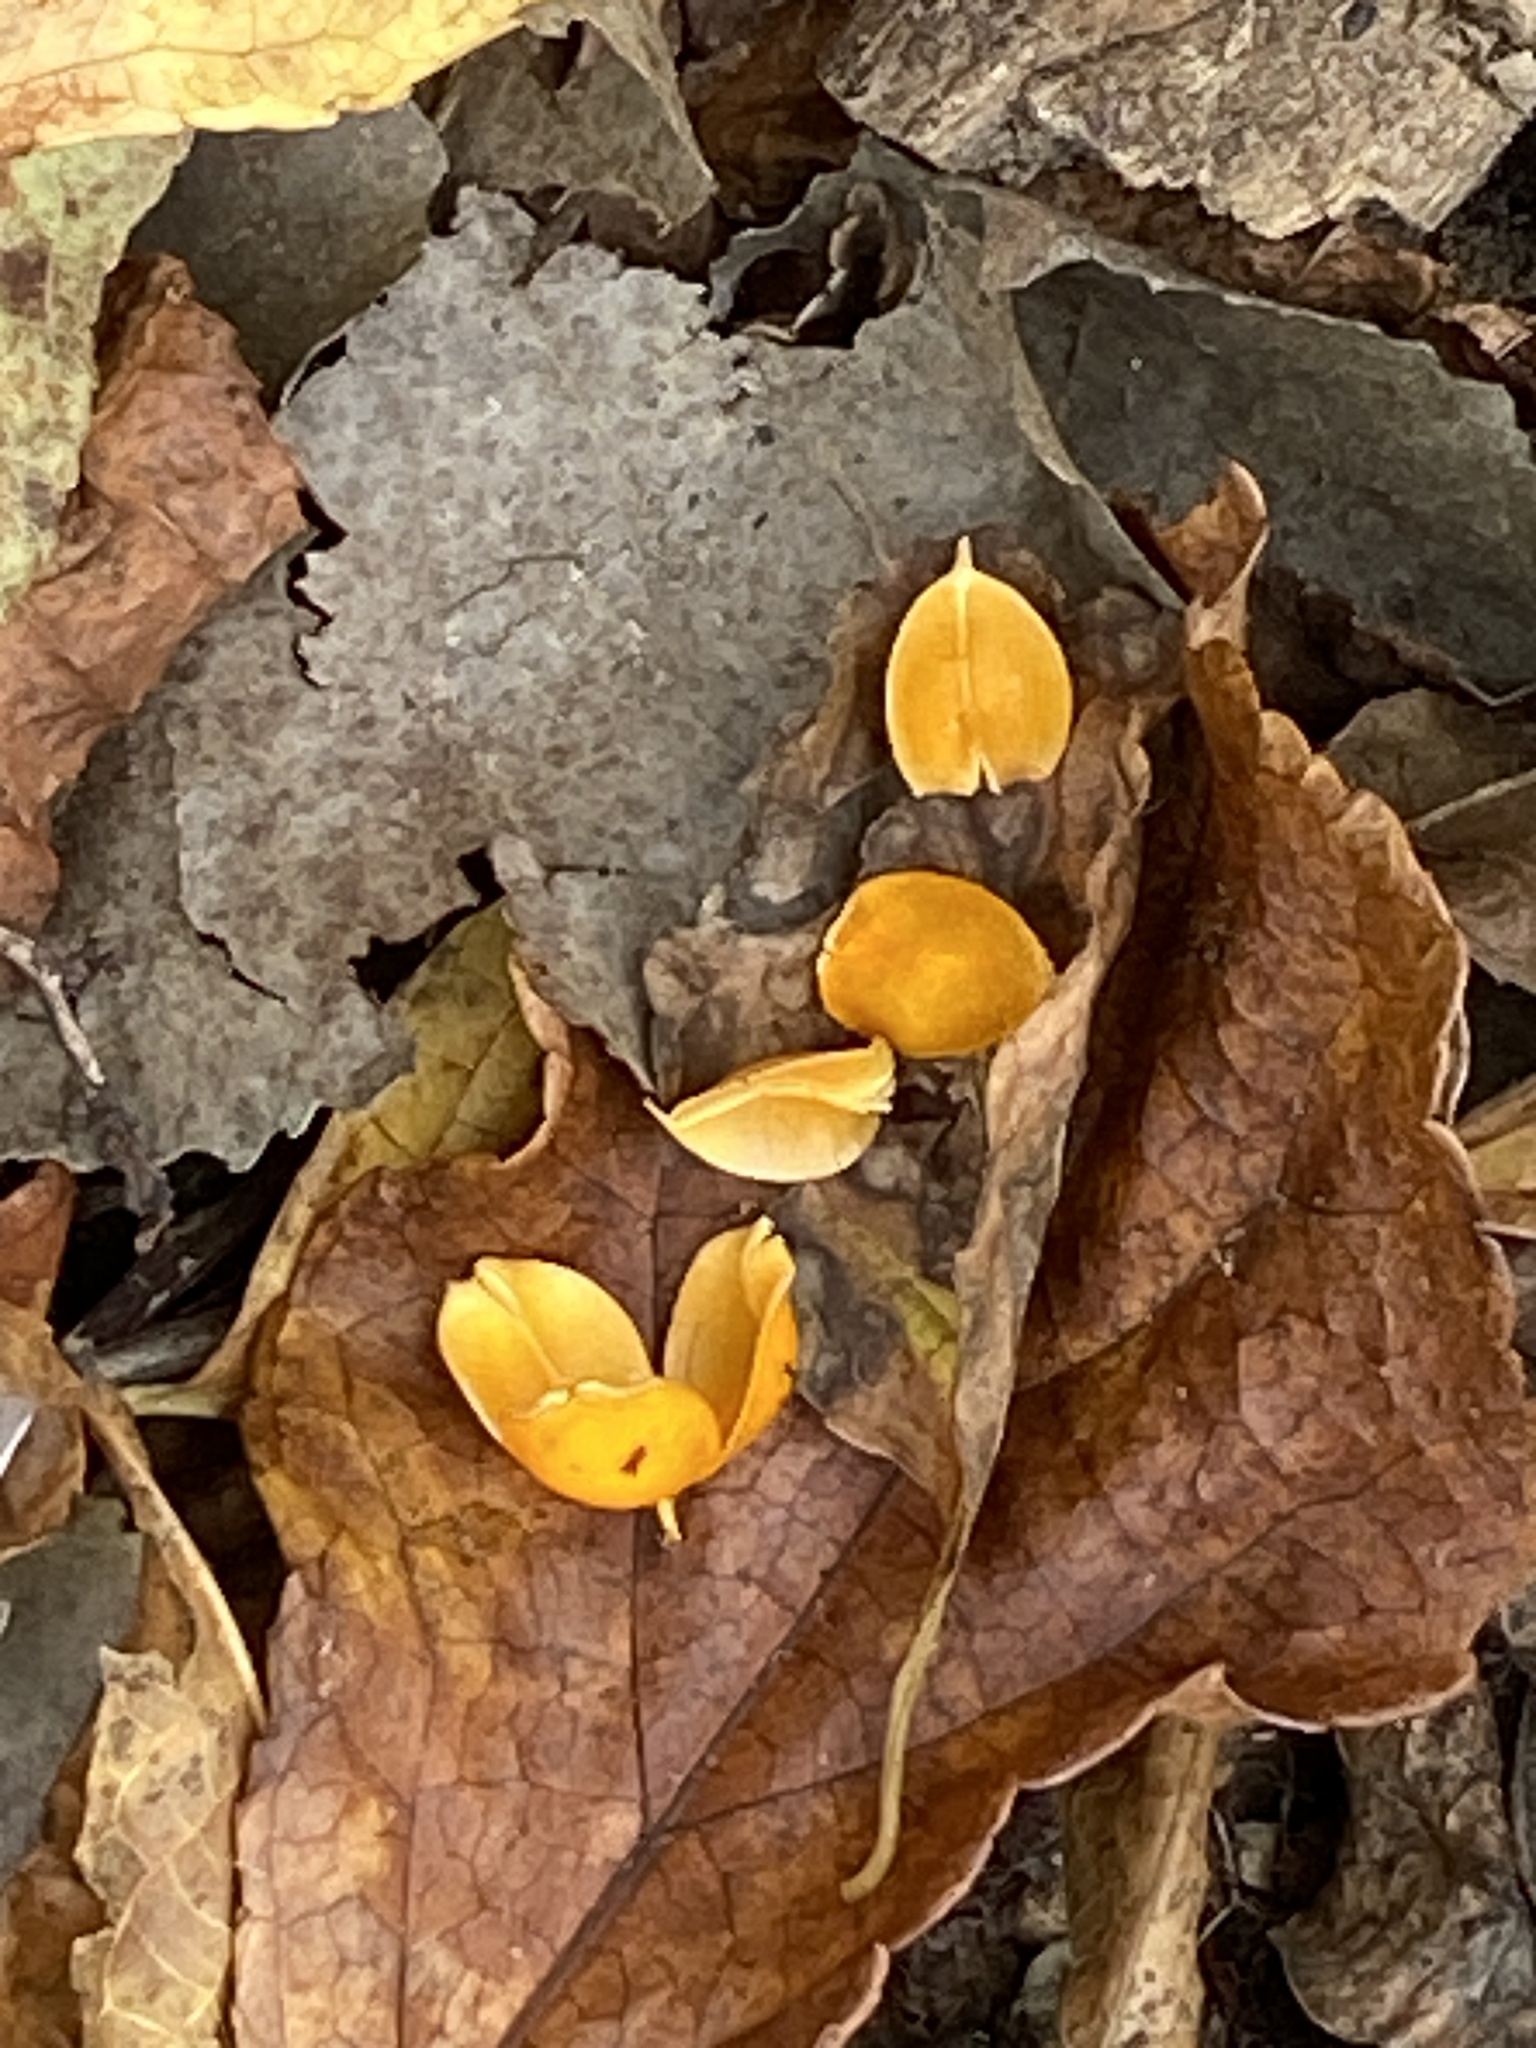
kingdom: Plantae
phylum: Tracheophyta
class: Magnoliopsida
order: Celastrales
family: Celastraceae
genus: Celastrus
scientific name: Celastrus orbiculatus
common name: Oriental bittersweet
